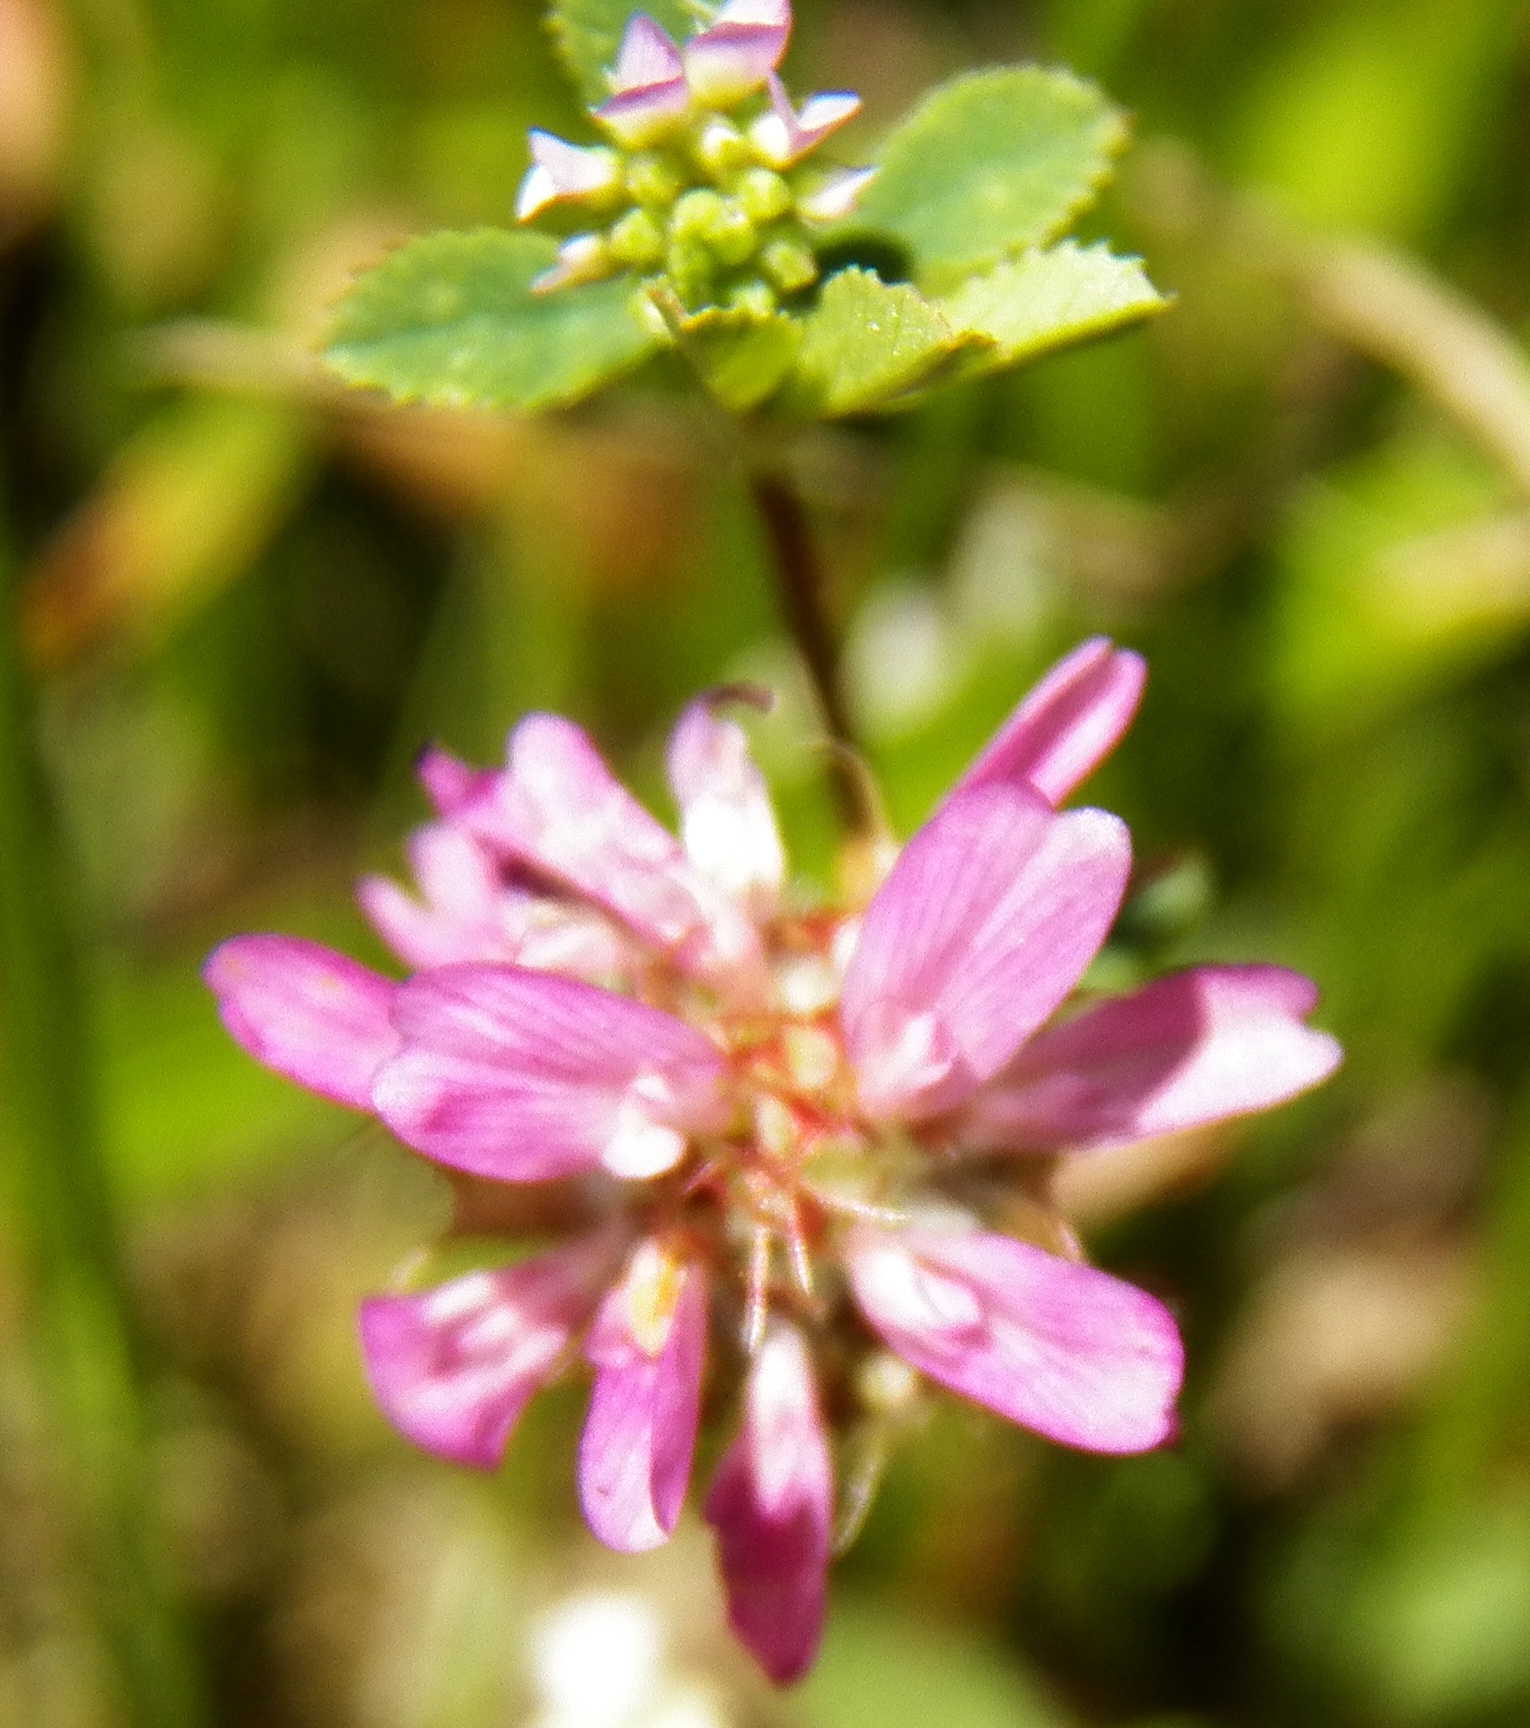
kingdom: Plantae
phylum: Tracheophyta
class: Magnoliopsida
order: Fabales
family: Fabaceae
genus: Trifolium
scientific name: Trifolium resupinatum
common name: Reversed clover
